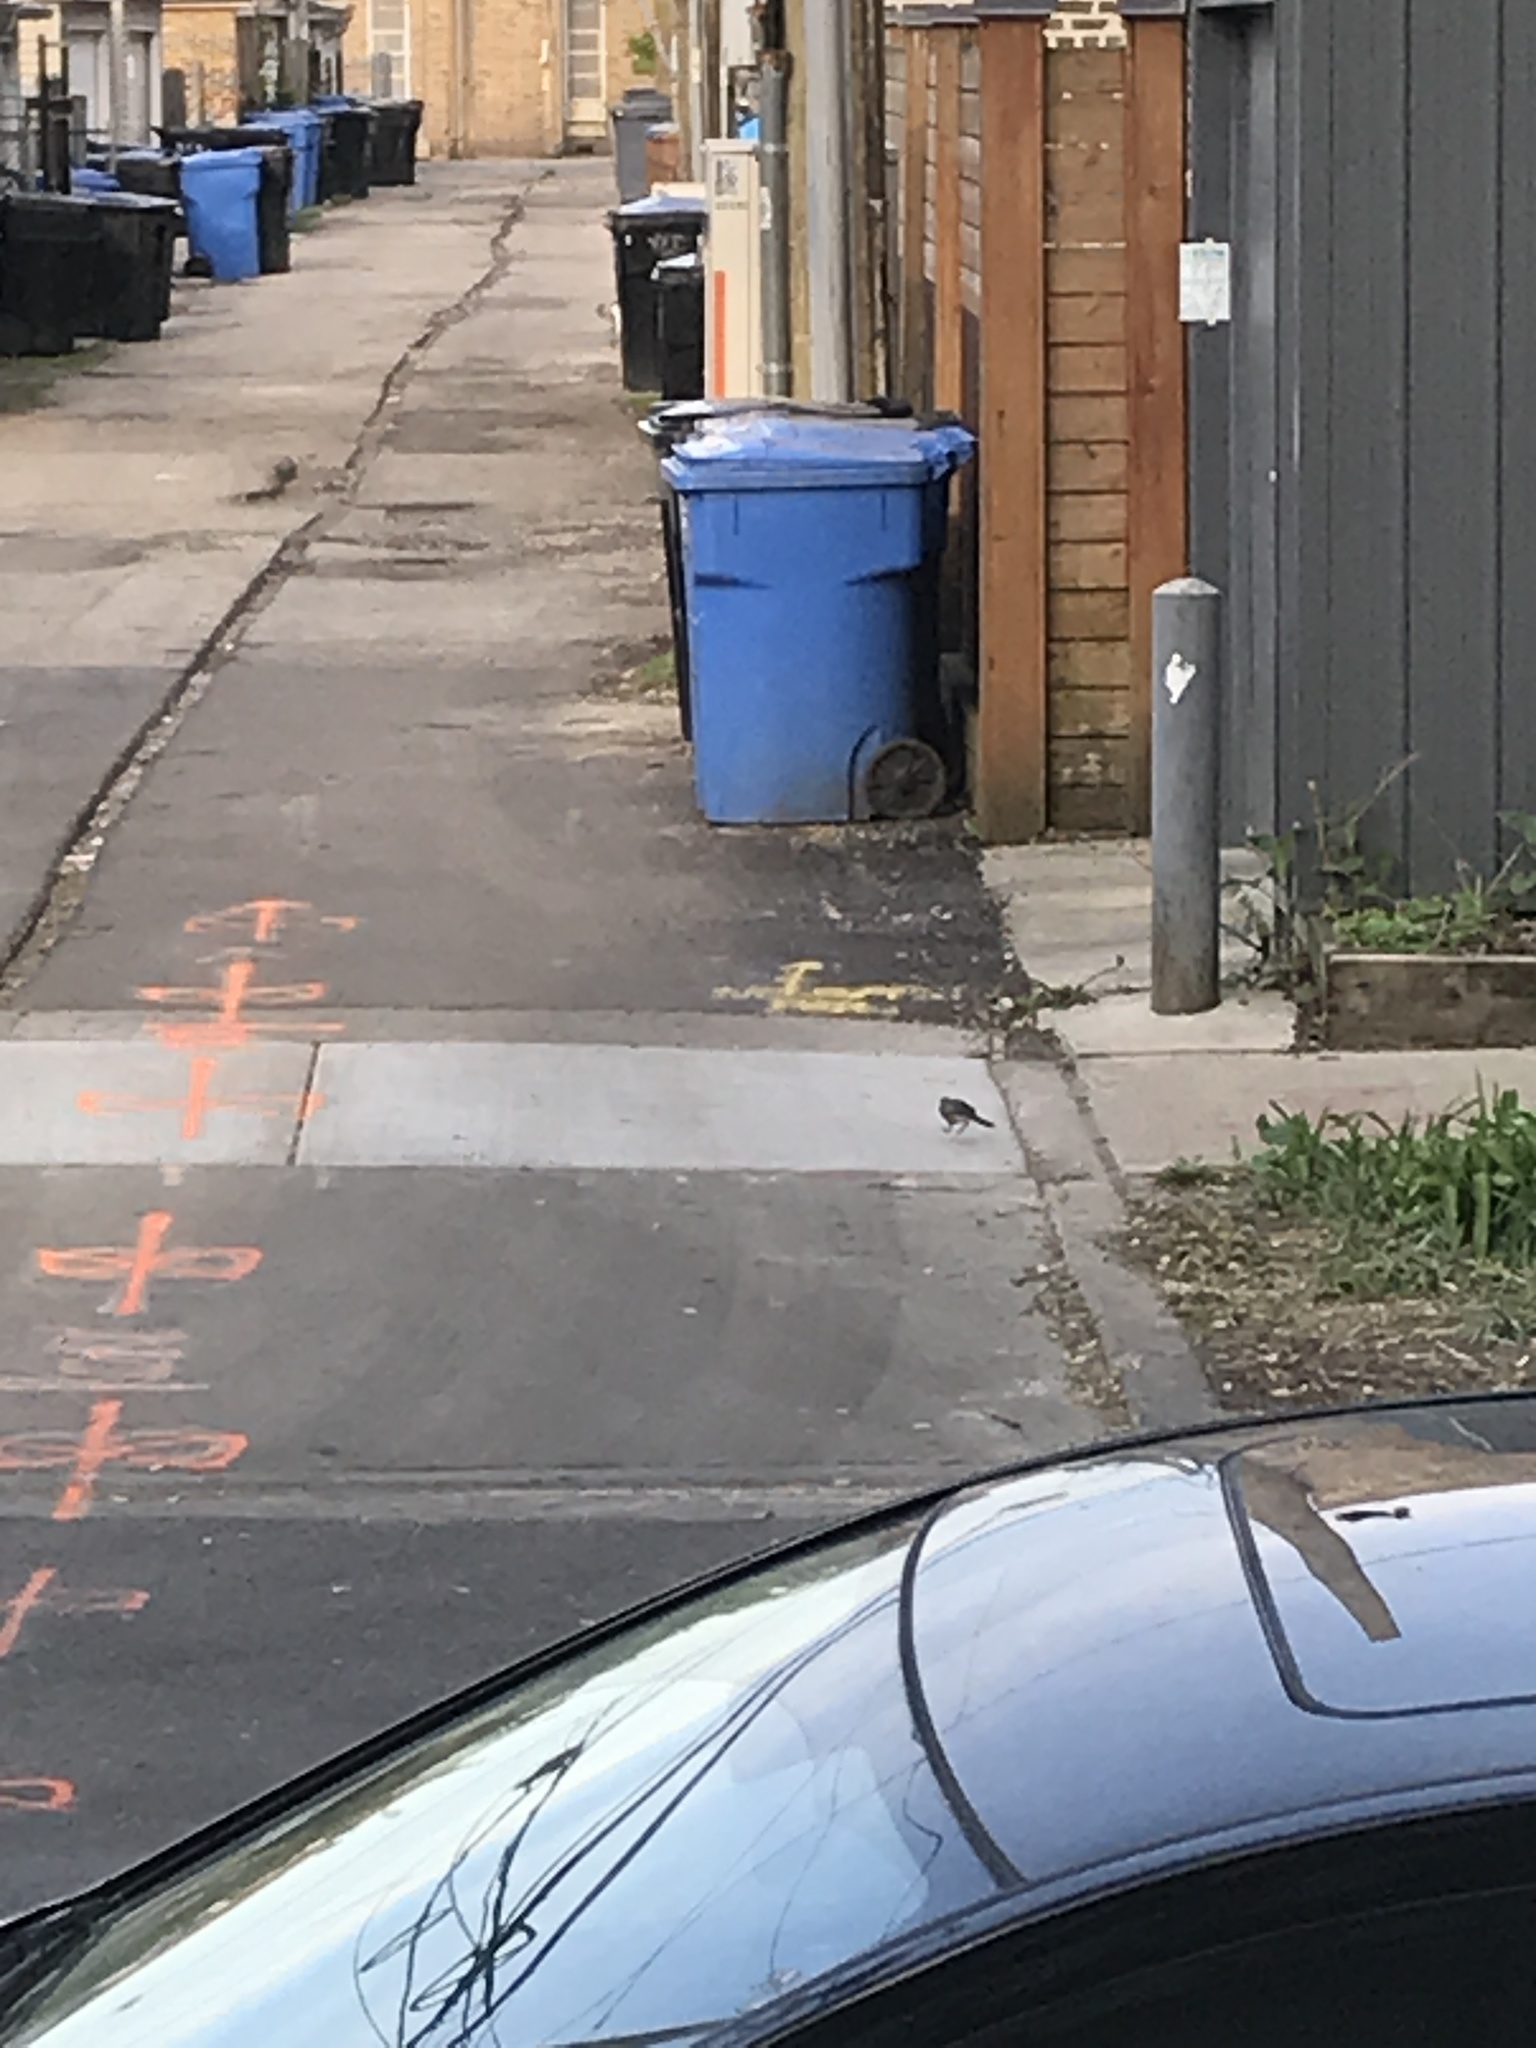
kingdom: Animalia
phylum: Chordata
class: Aves
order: Passeriformes
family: Turdidae
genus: Turdus
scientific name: Turdus migratorius
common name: American robin
